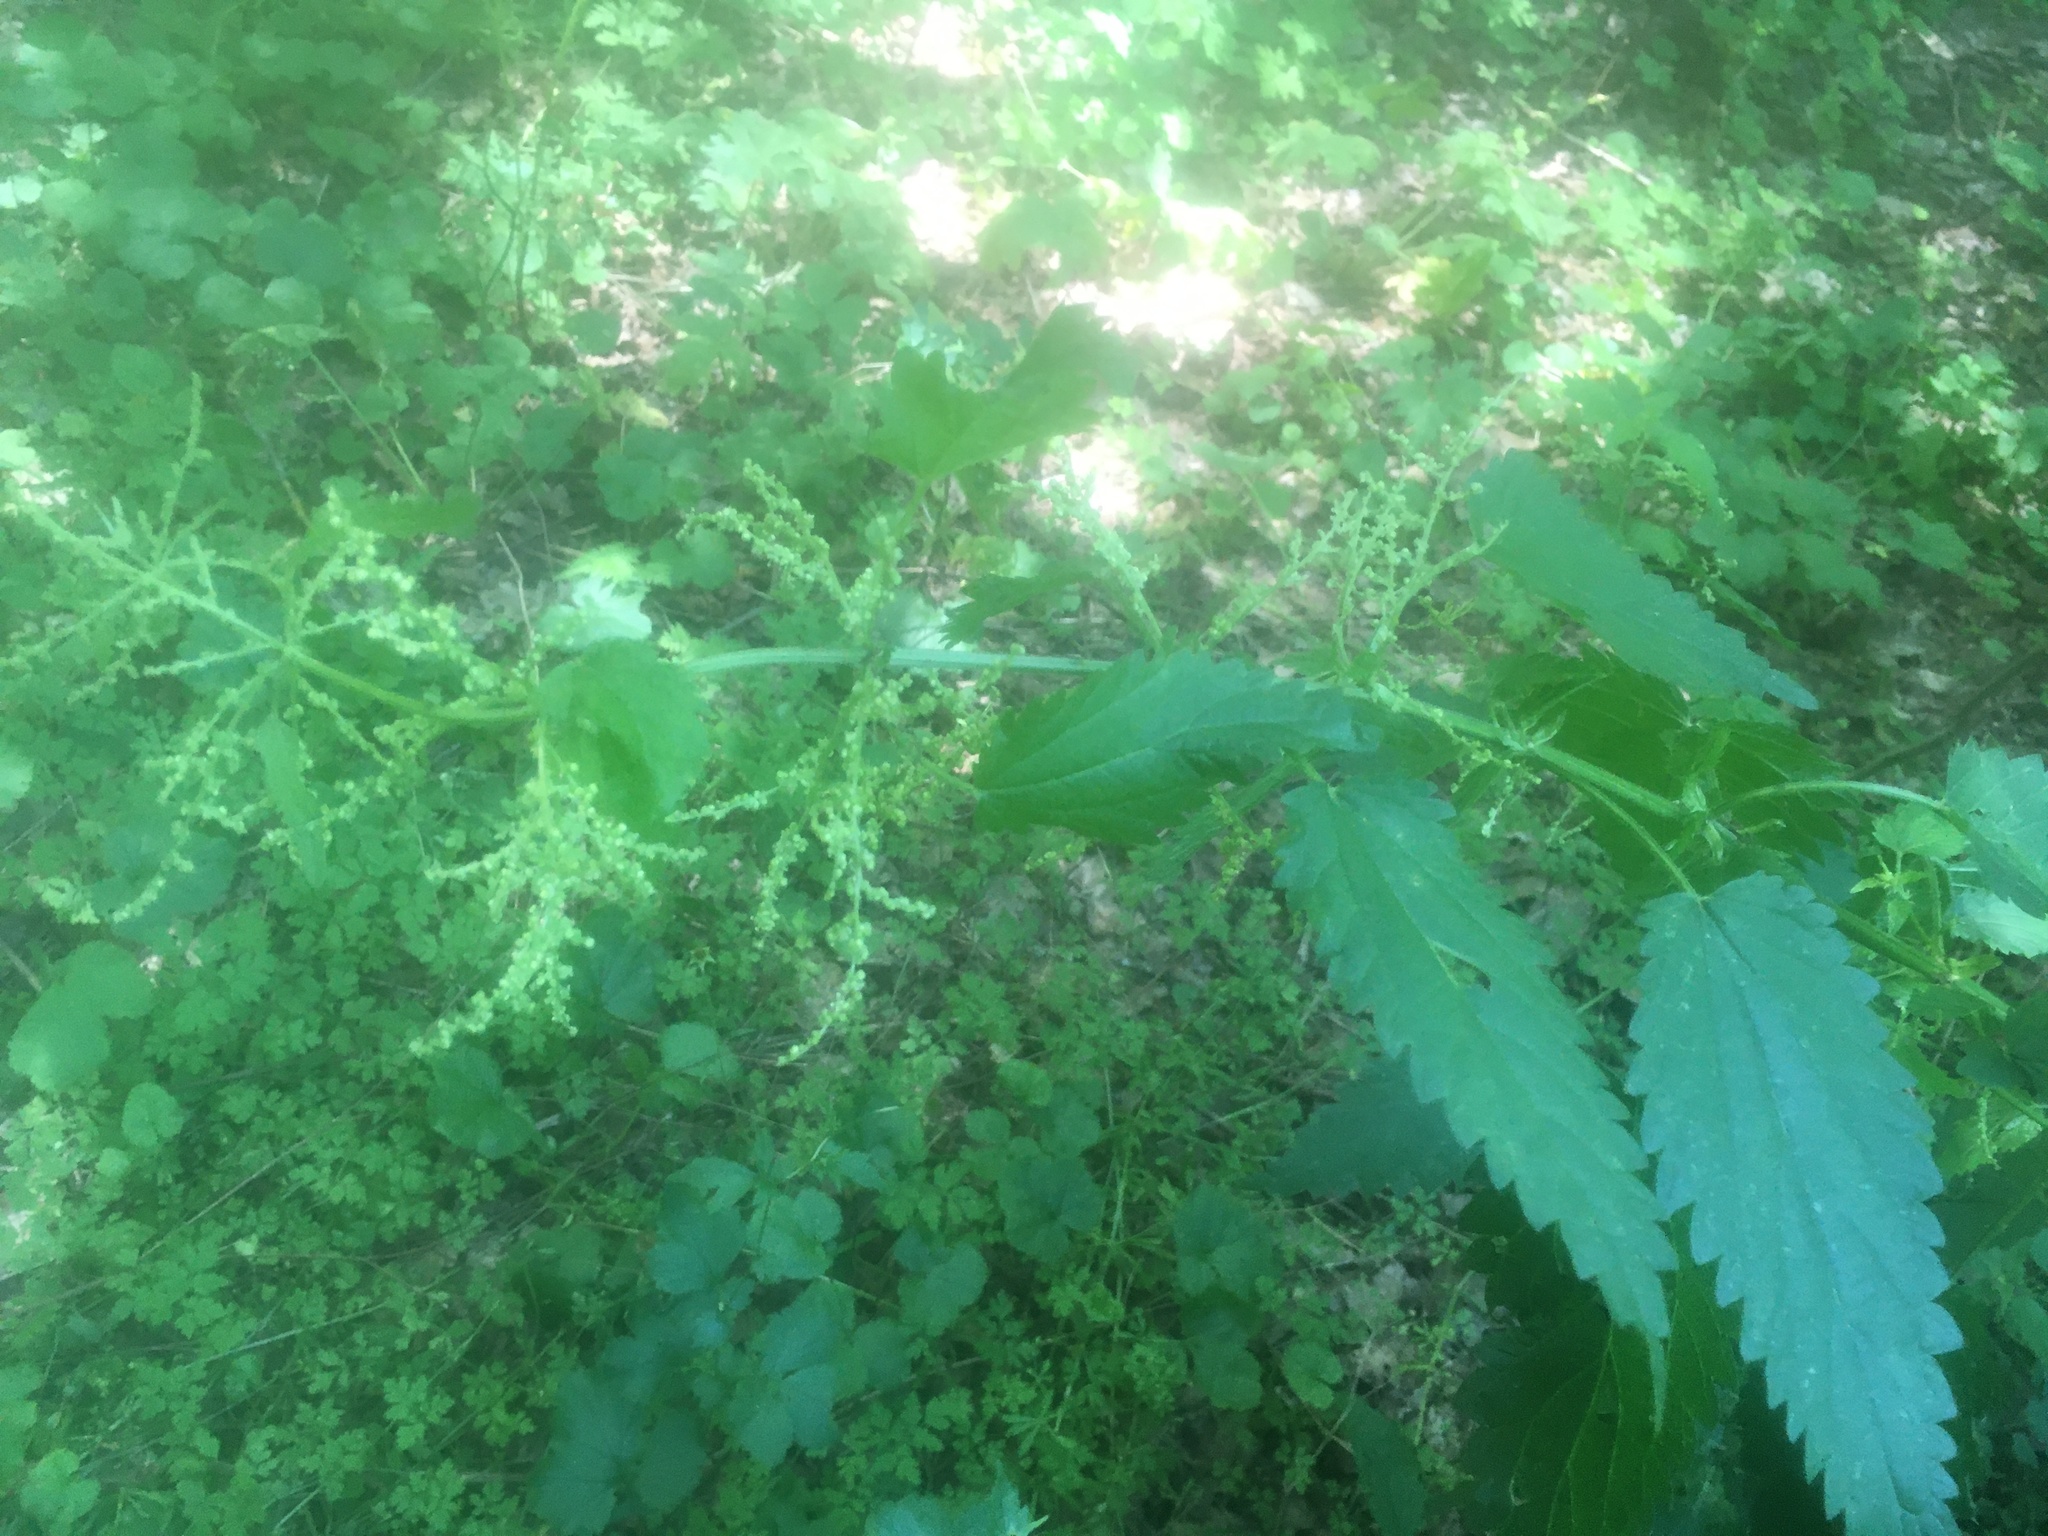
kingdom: Plantae
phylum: Tracheophyta
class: Magnoliopsida
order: Rosales
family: Urticaceae
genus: Urtica
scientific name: Urtica dioica
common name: Common nettle
